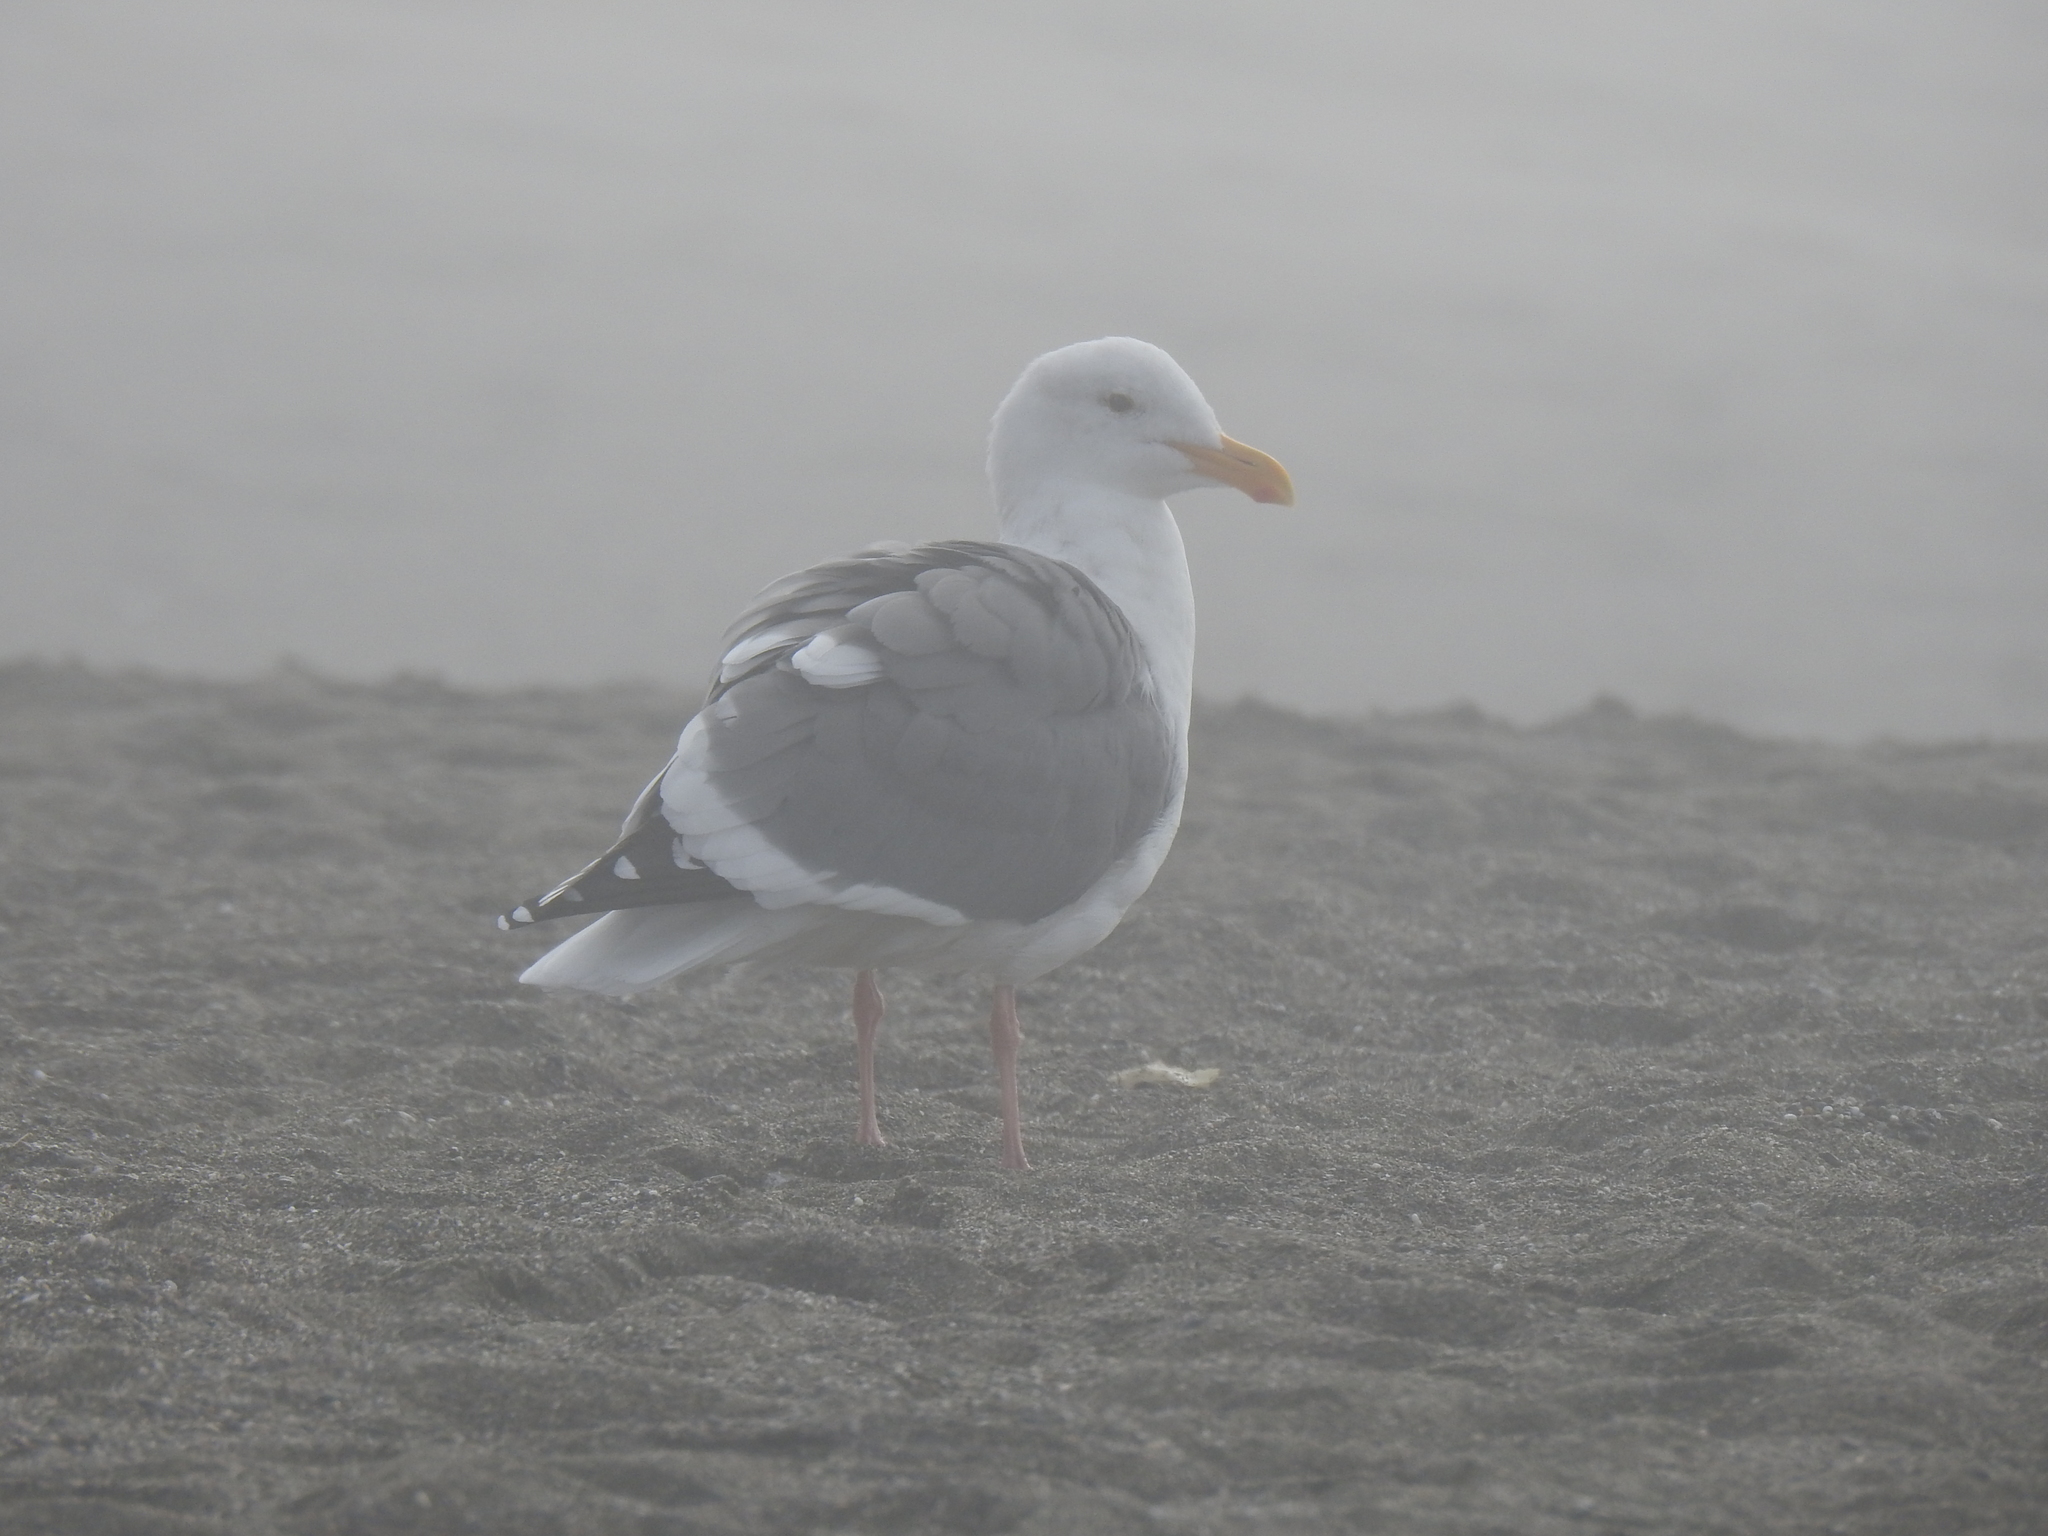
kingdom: Animalia
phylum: Chordata
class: Aves
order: Charadriiformes
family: Laridae
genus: Larus
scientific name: Larus occidentalis
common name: Western gull
